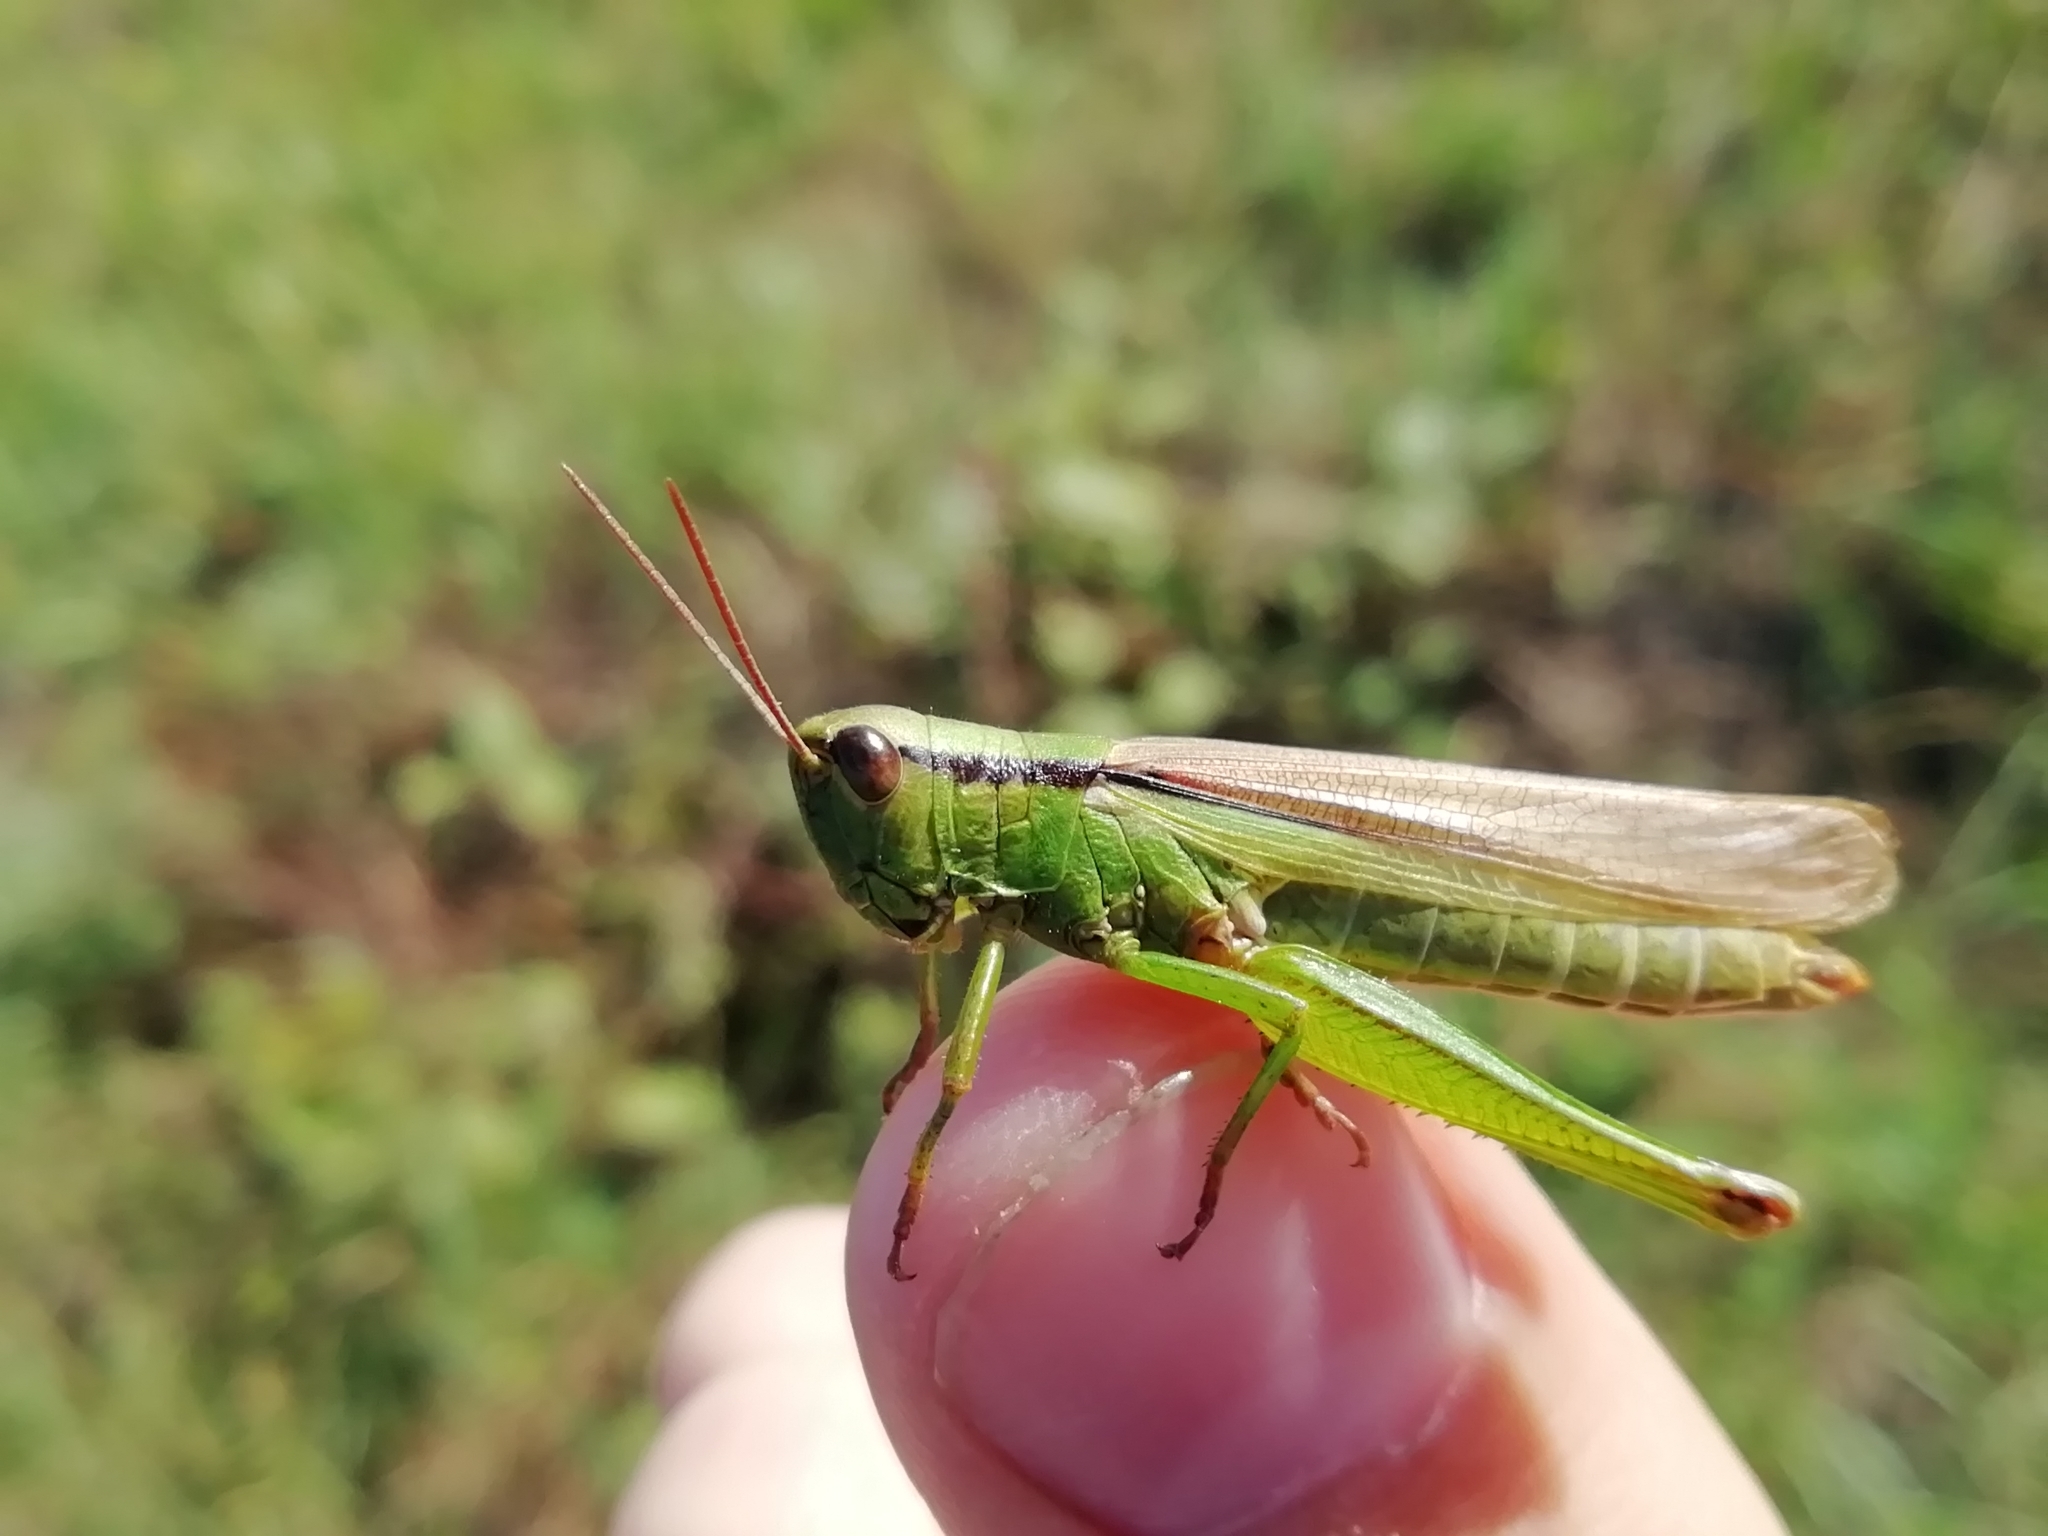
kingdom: Animalia
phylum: Arthropoda
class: Insecta
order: Orthoptera
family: Acrididae
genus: Mecostethus
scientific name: Mecostethus parapleurus
